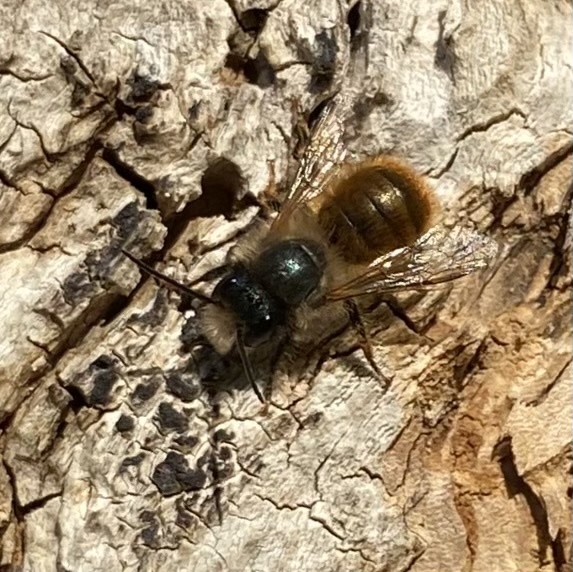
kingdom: Animalia
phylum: Arthropoda
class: Insecta
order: Hymenoptera
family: Megachilidae
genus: Osmia
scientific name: Osmia bicornis
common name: Red mason bee
